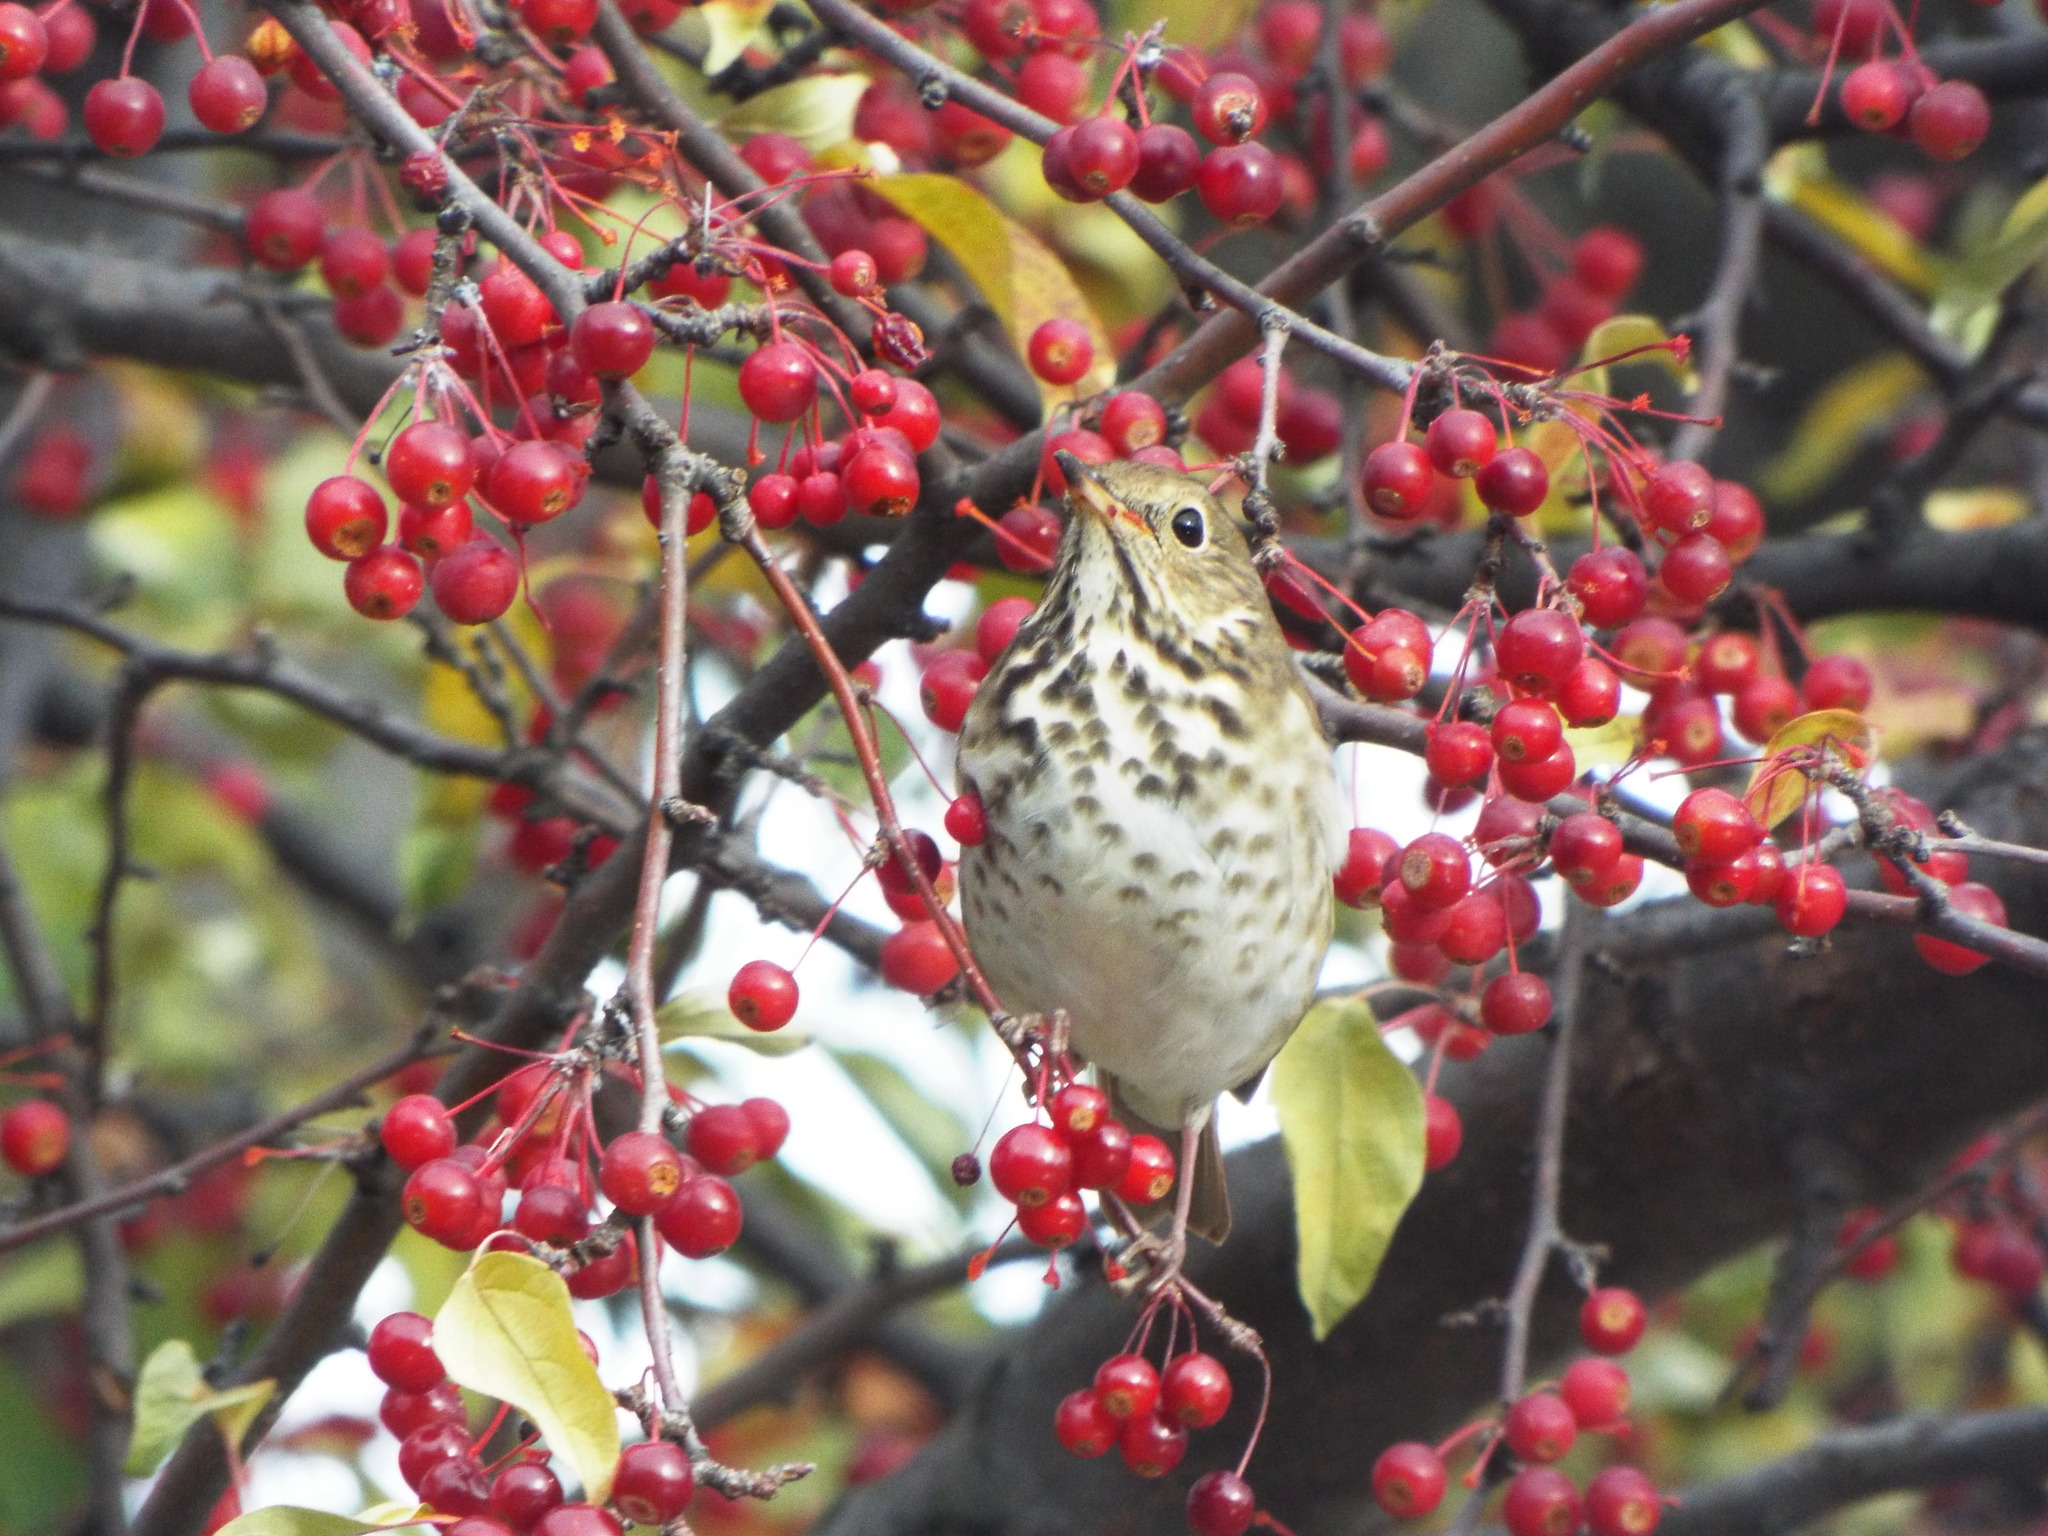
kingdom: Animalia
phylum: Chordata
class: Aves
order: Passeriformes
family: Turdidae
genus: Catharus
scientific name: Catharus guttatus
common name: Hermit thrush
